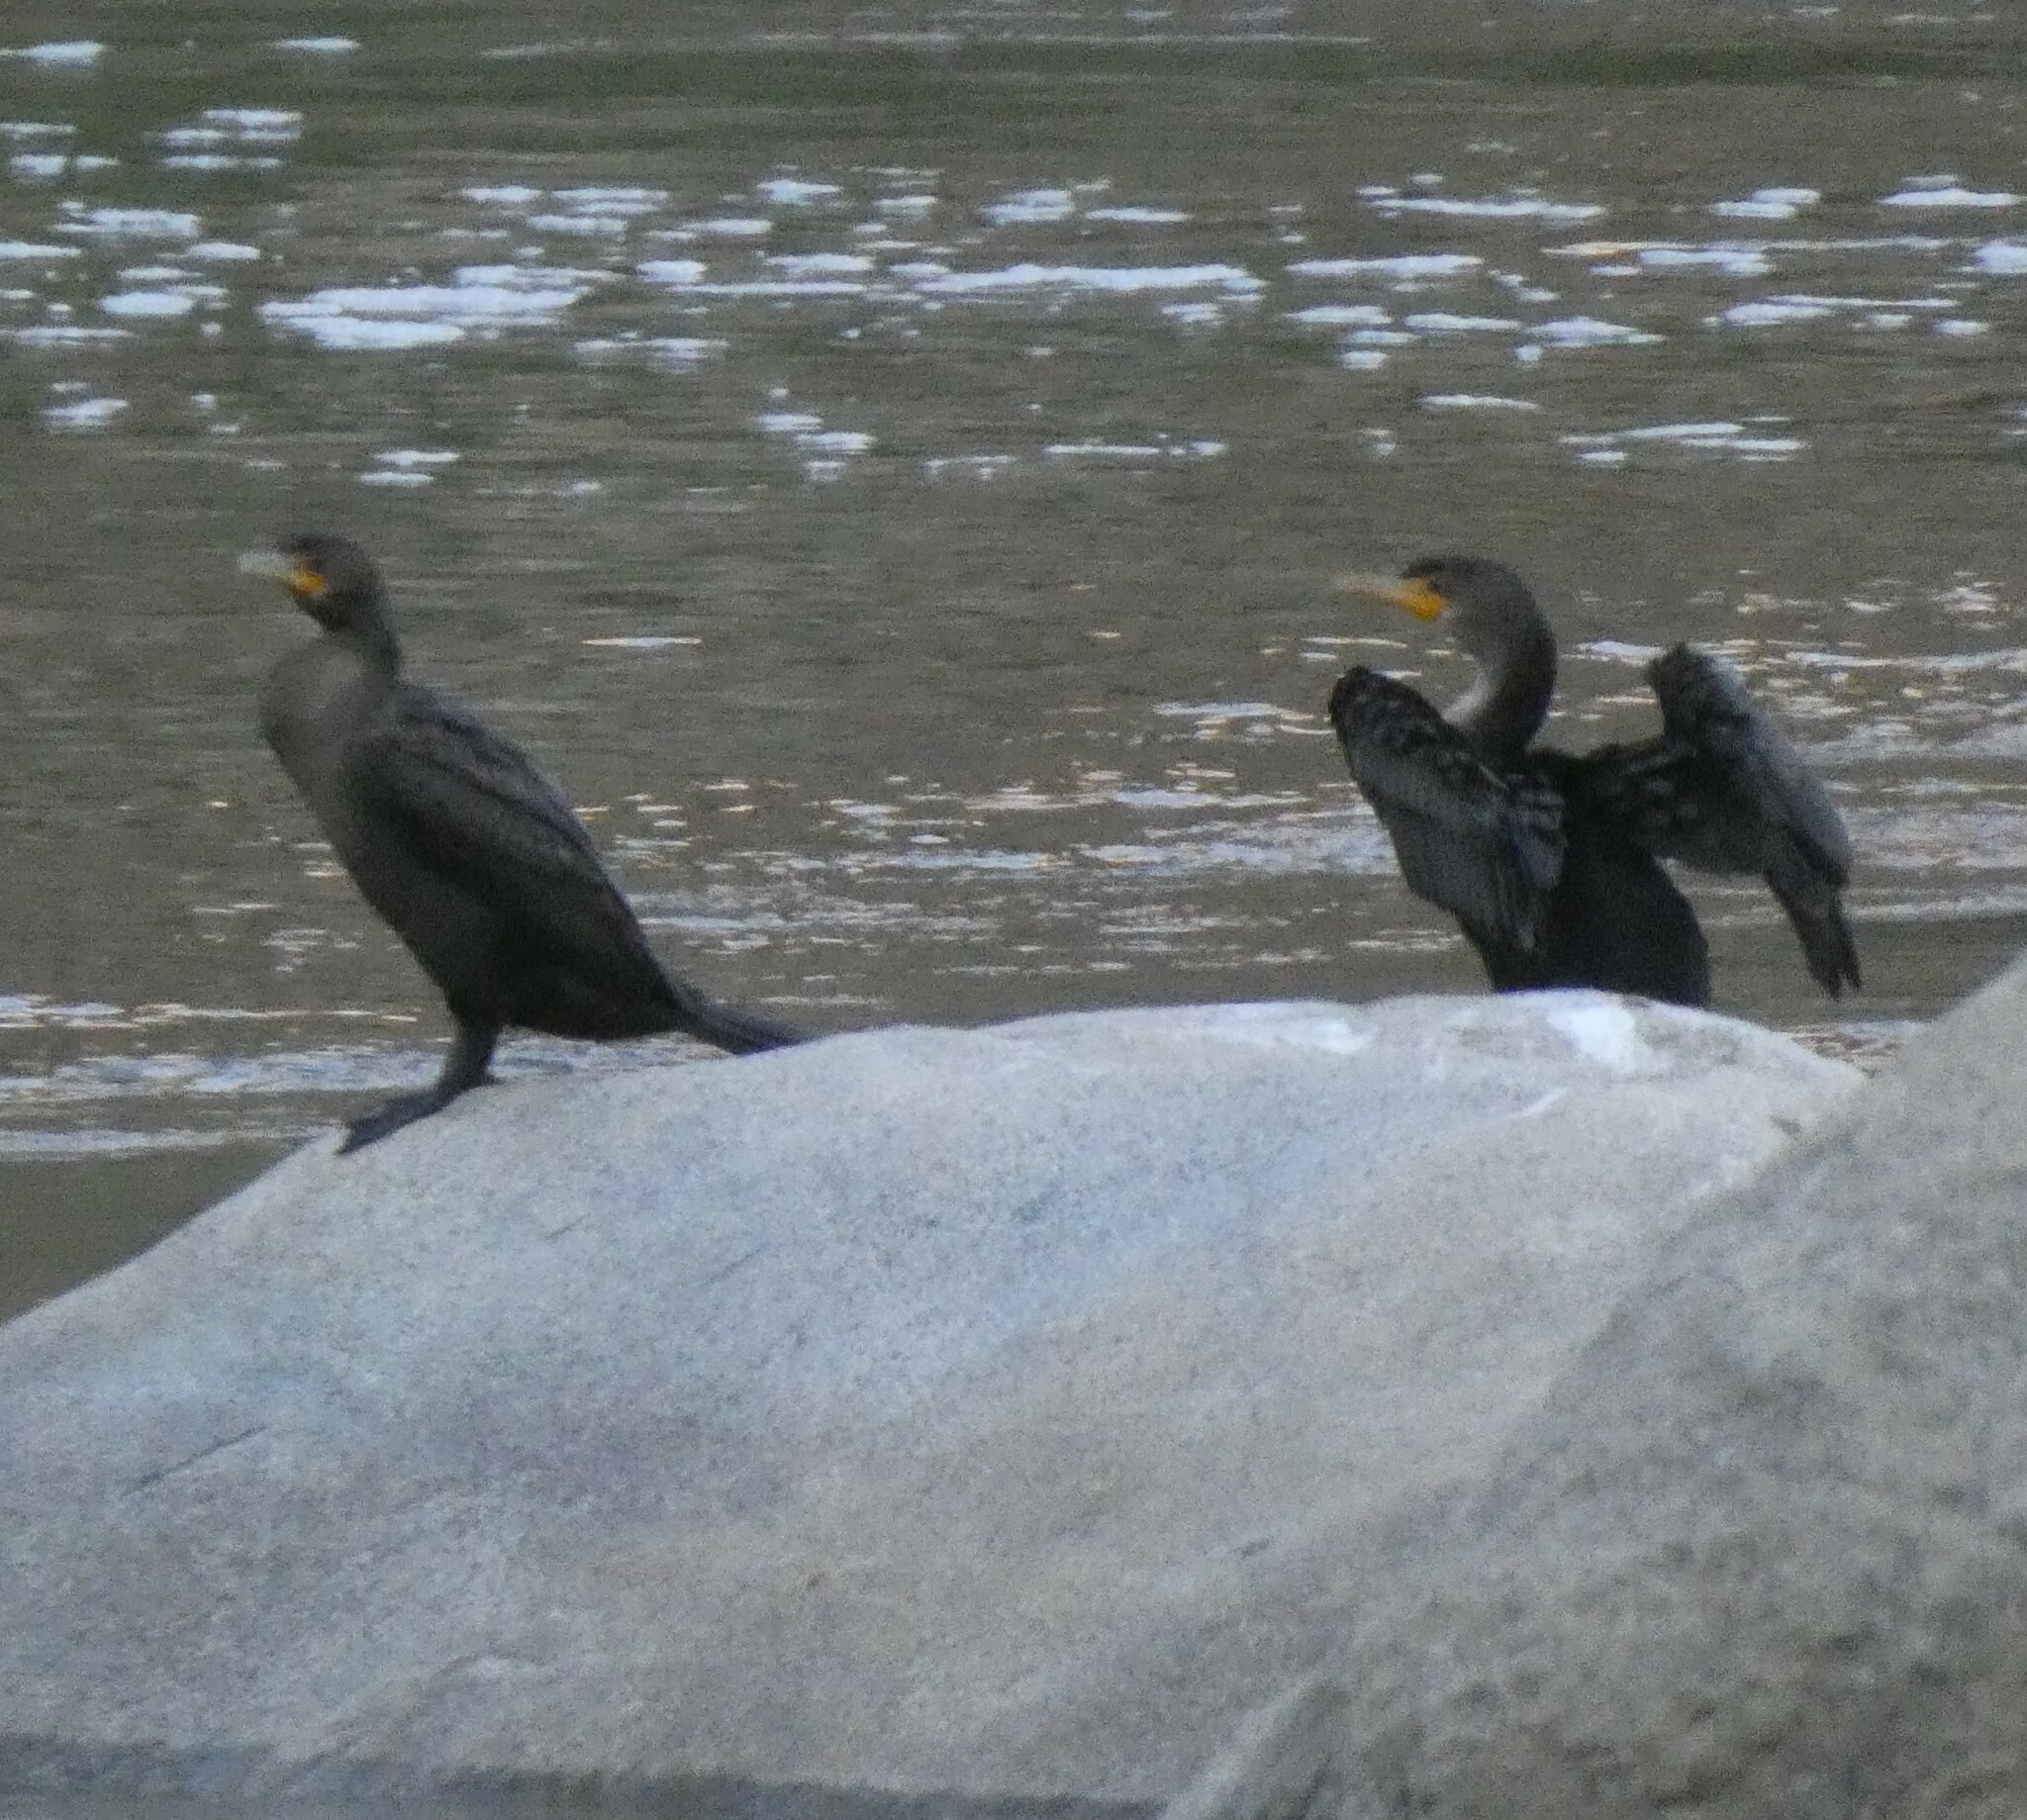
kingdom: Animalia
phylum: Chordata
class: Aves
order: Suliformes
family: Phalacrocoracidae
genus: Phalacrocorax
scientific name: Phalacrocorax auritus
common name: Double-crested cormorant
